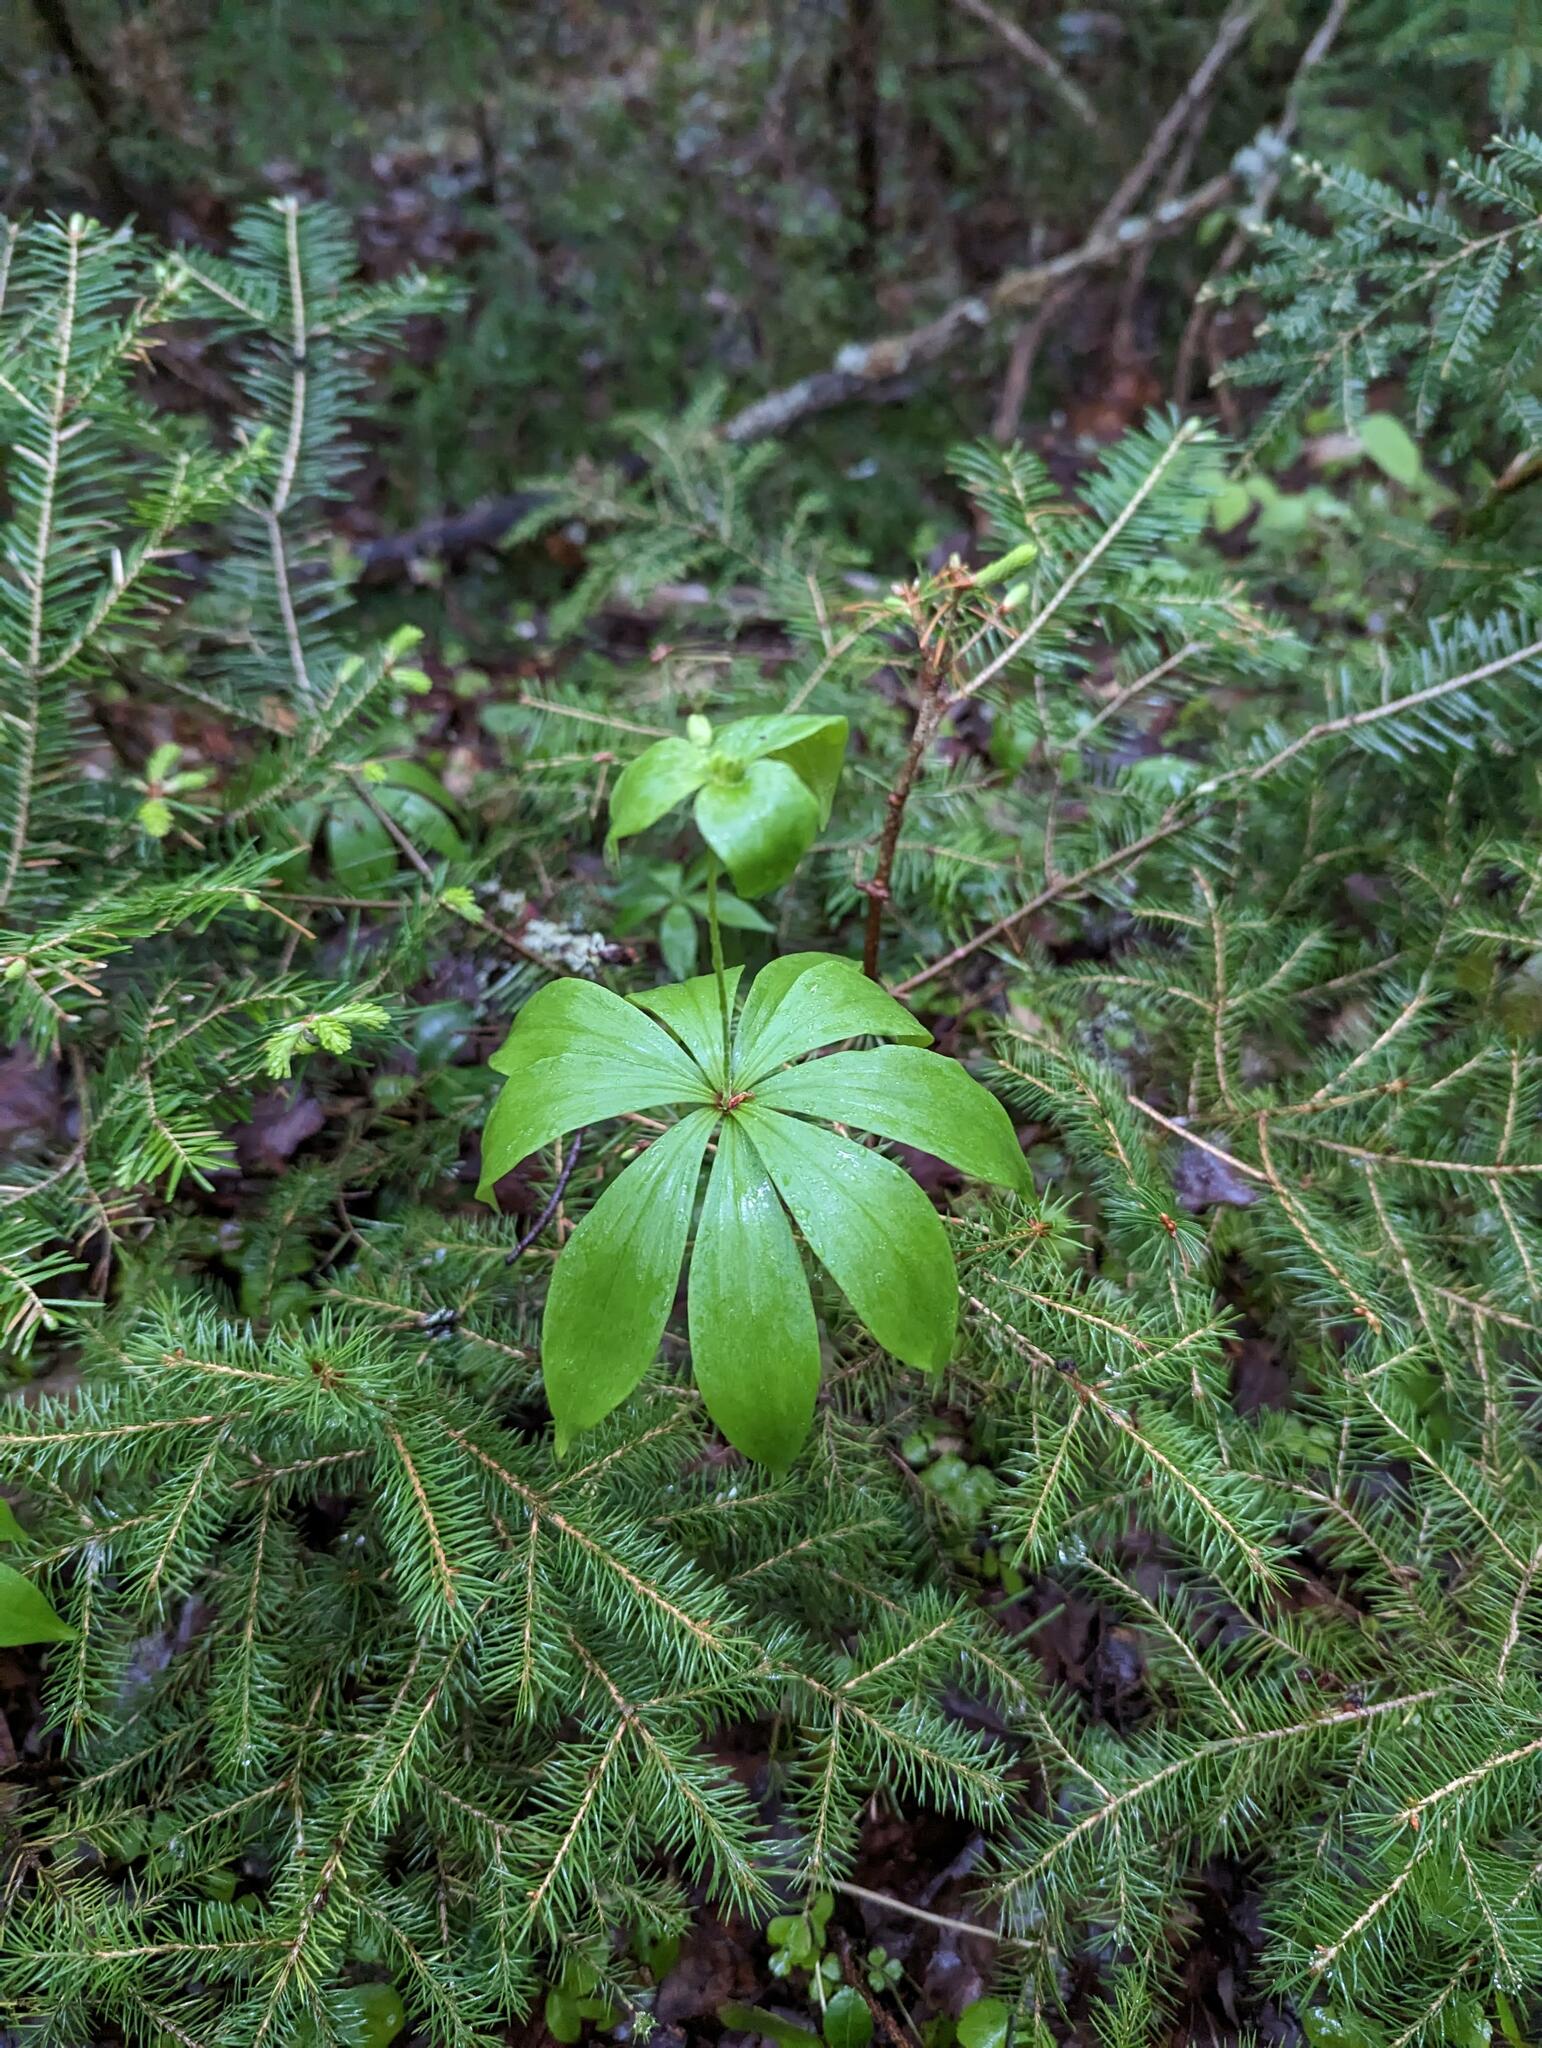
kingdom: Plantae
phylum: Tracheophyta
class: Liliopsida
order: Liliales
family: Liliaceae
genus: Medeola
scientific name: Medeola virginiana
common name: Indian cucumber-root
